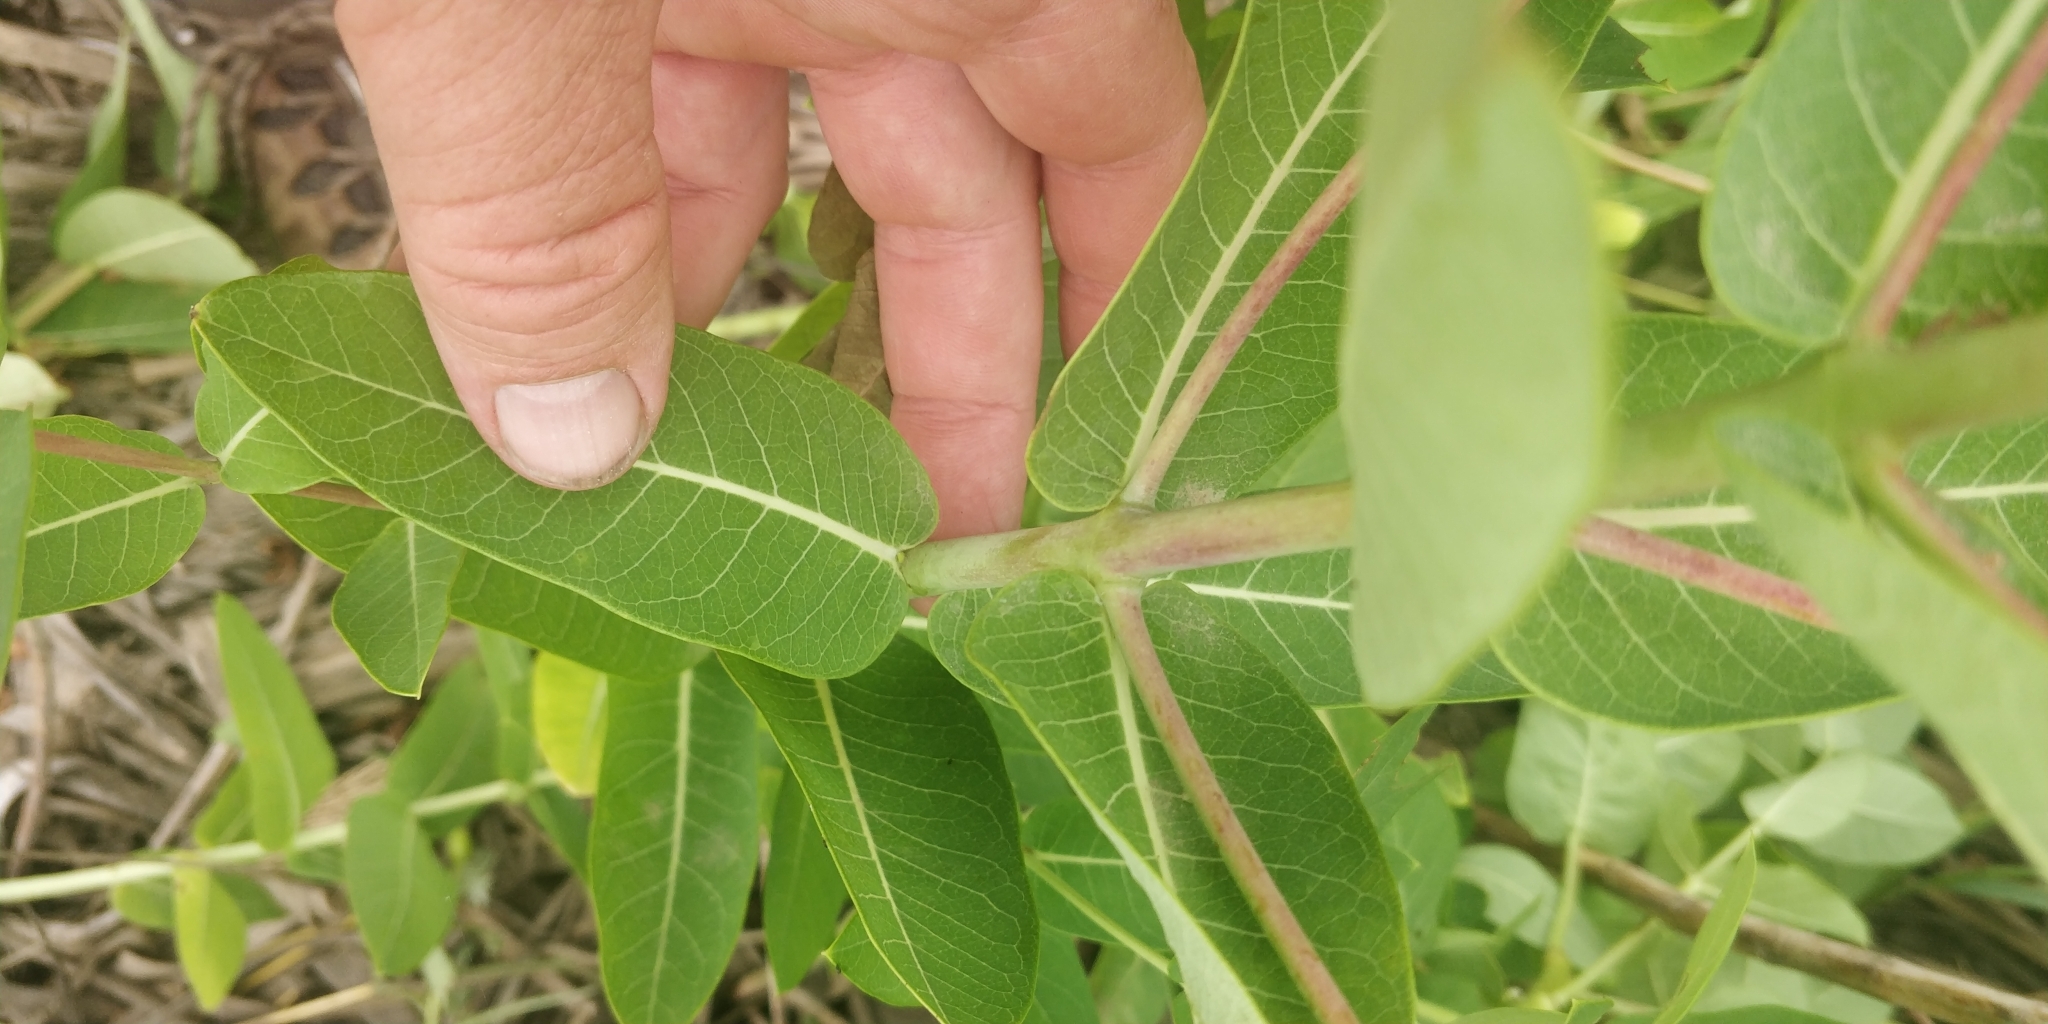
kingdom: Plantae
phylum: Tracheophyta
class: Magnoliopsida
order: Gentianales
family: Apocynaceae
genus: Apocynum
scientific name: Apocynum cannabinum
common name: Hemp dogbane
